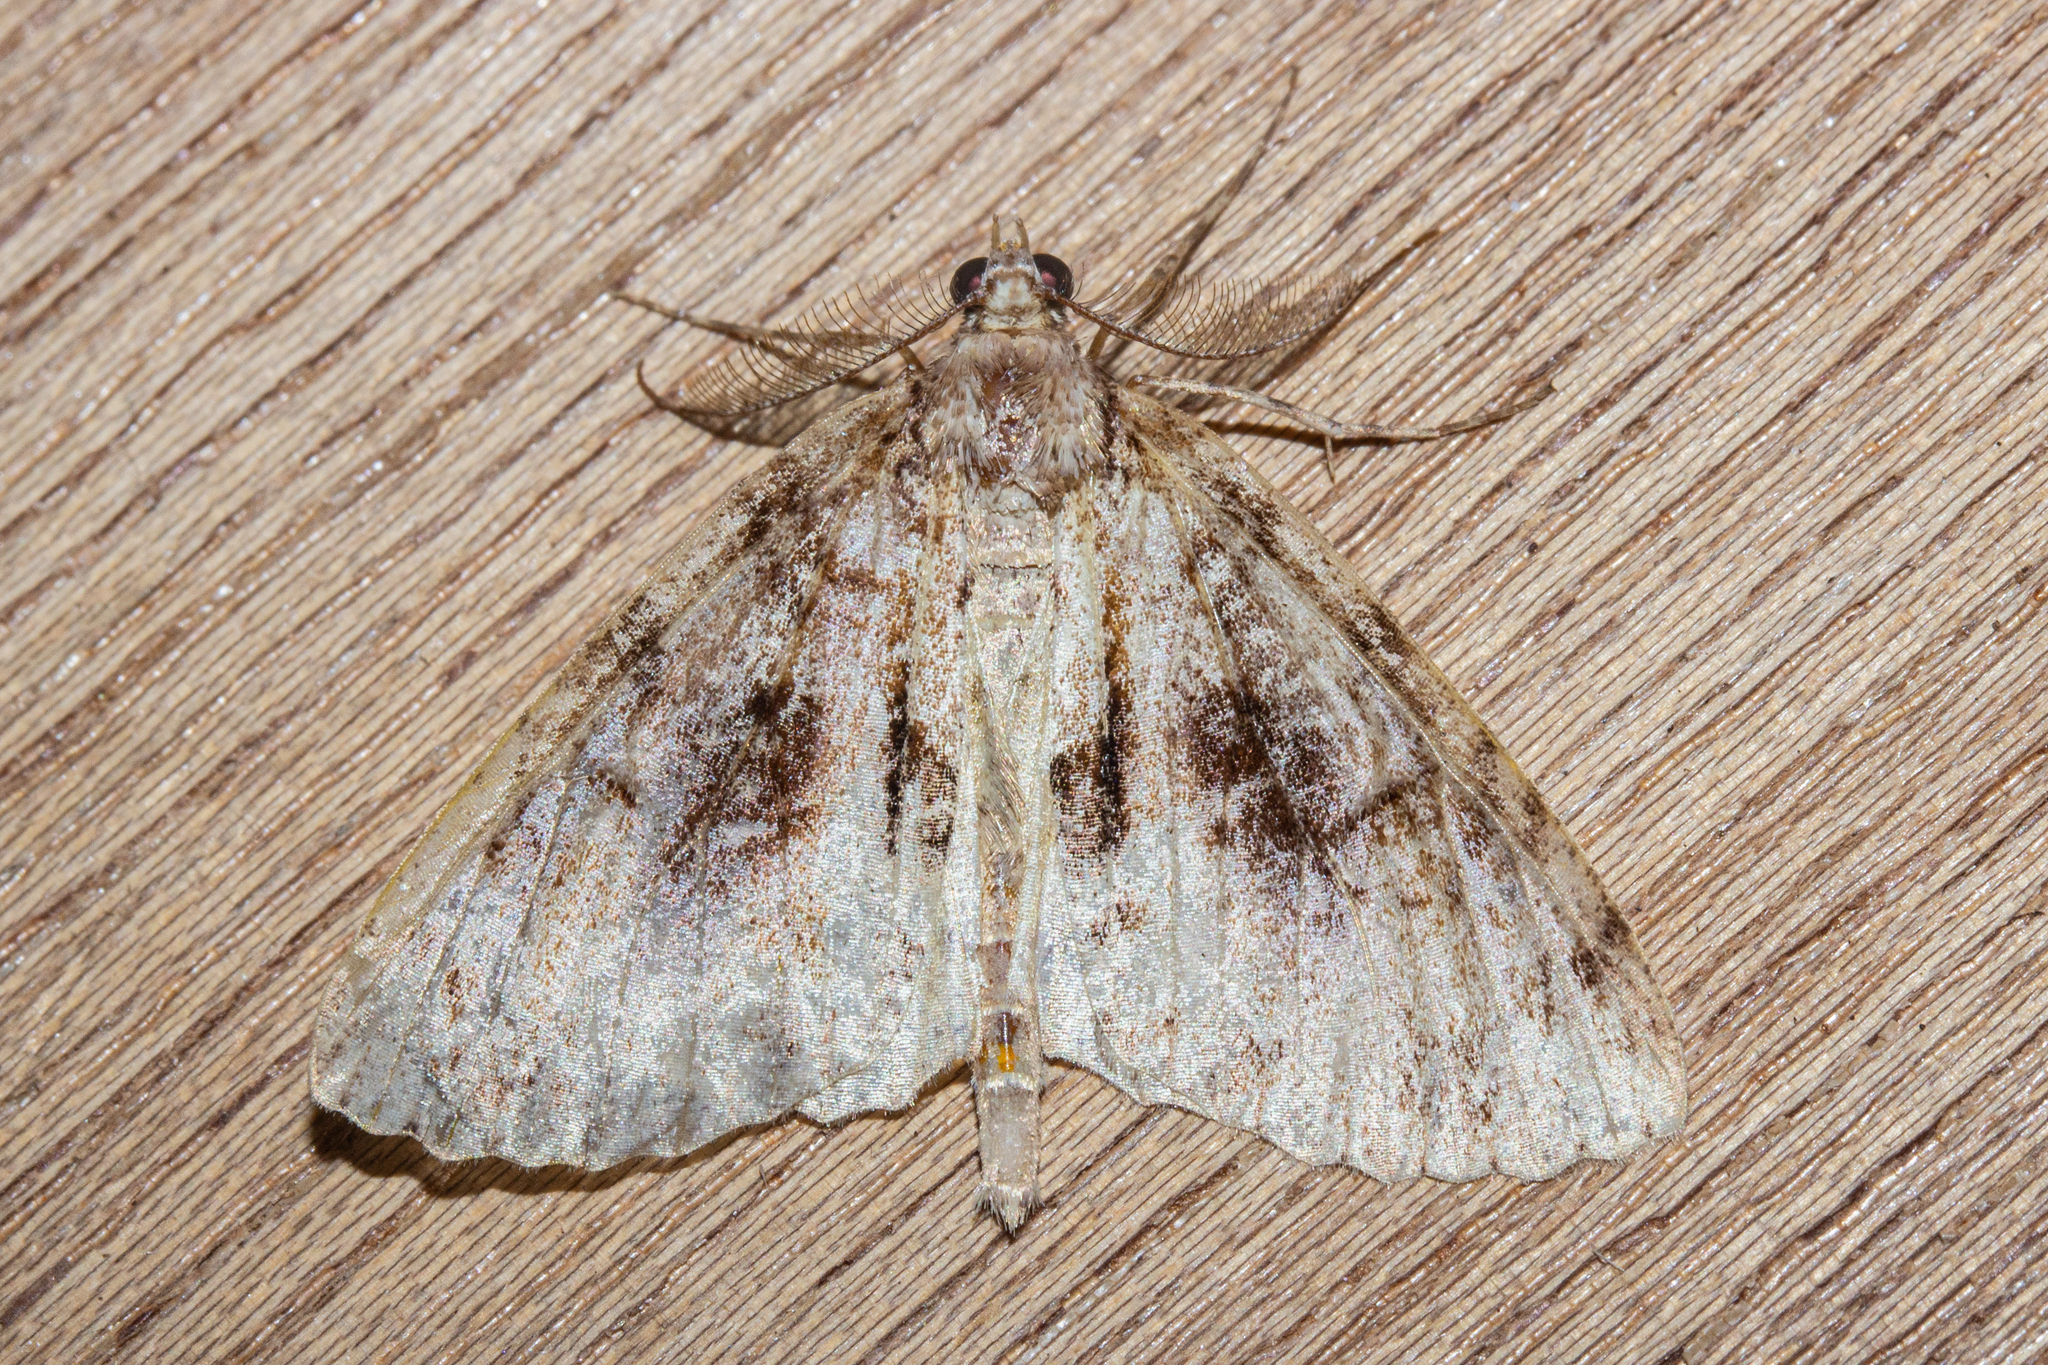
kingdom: Animalia
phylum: Arthropoda
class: Insecta
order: Lepidoptera
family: Geometridae
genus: Pseudocoremia
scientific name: Pseudocoremia suavis
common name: Common forest looper
